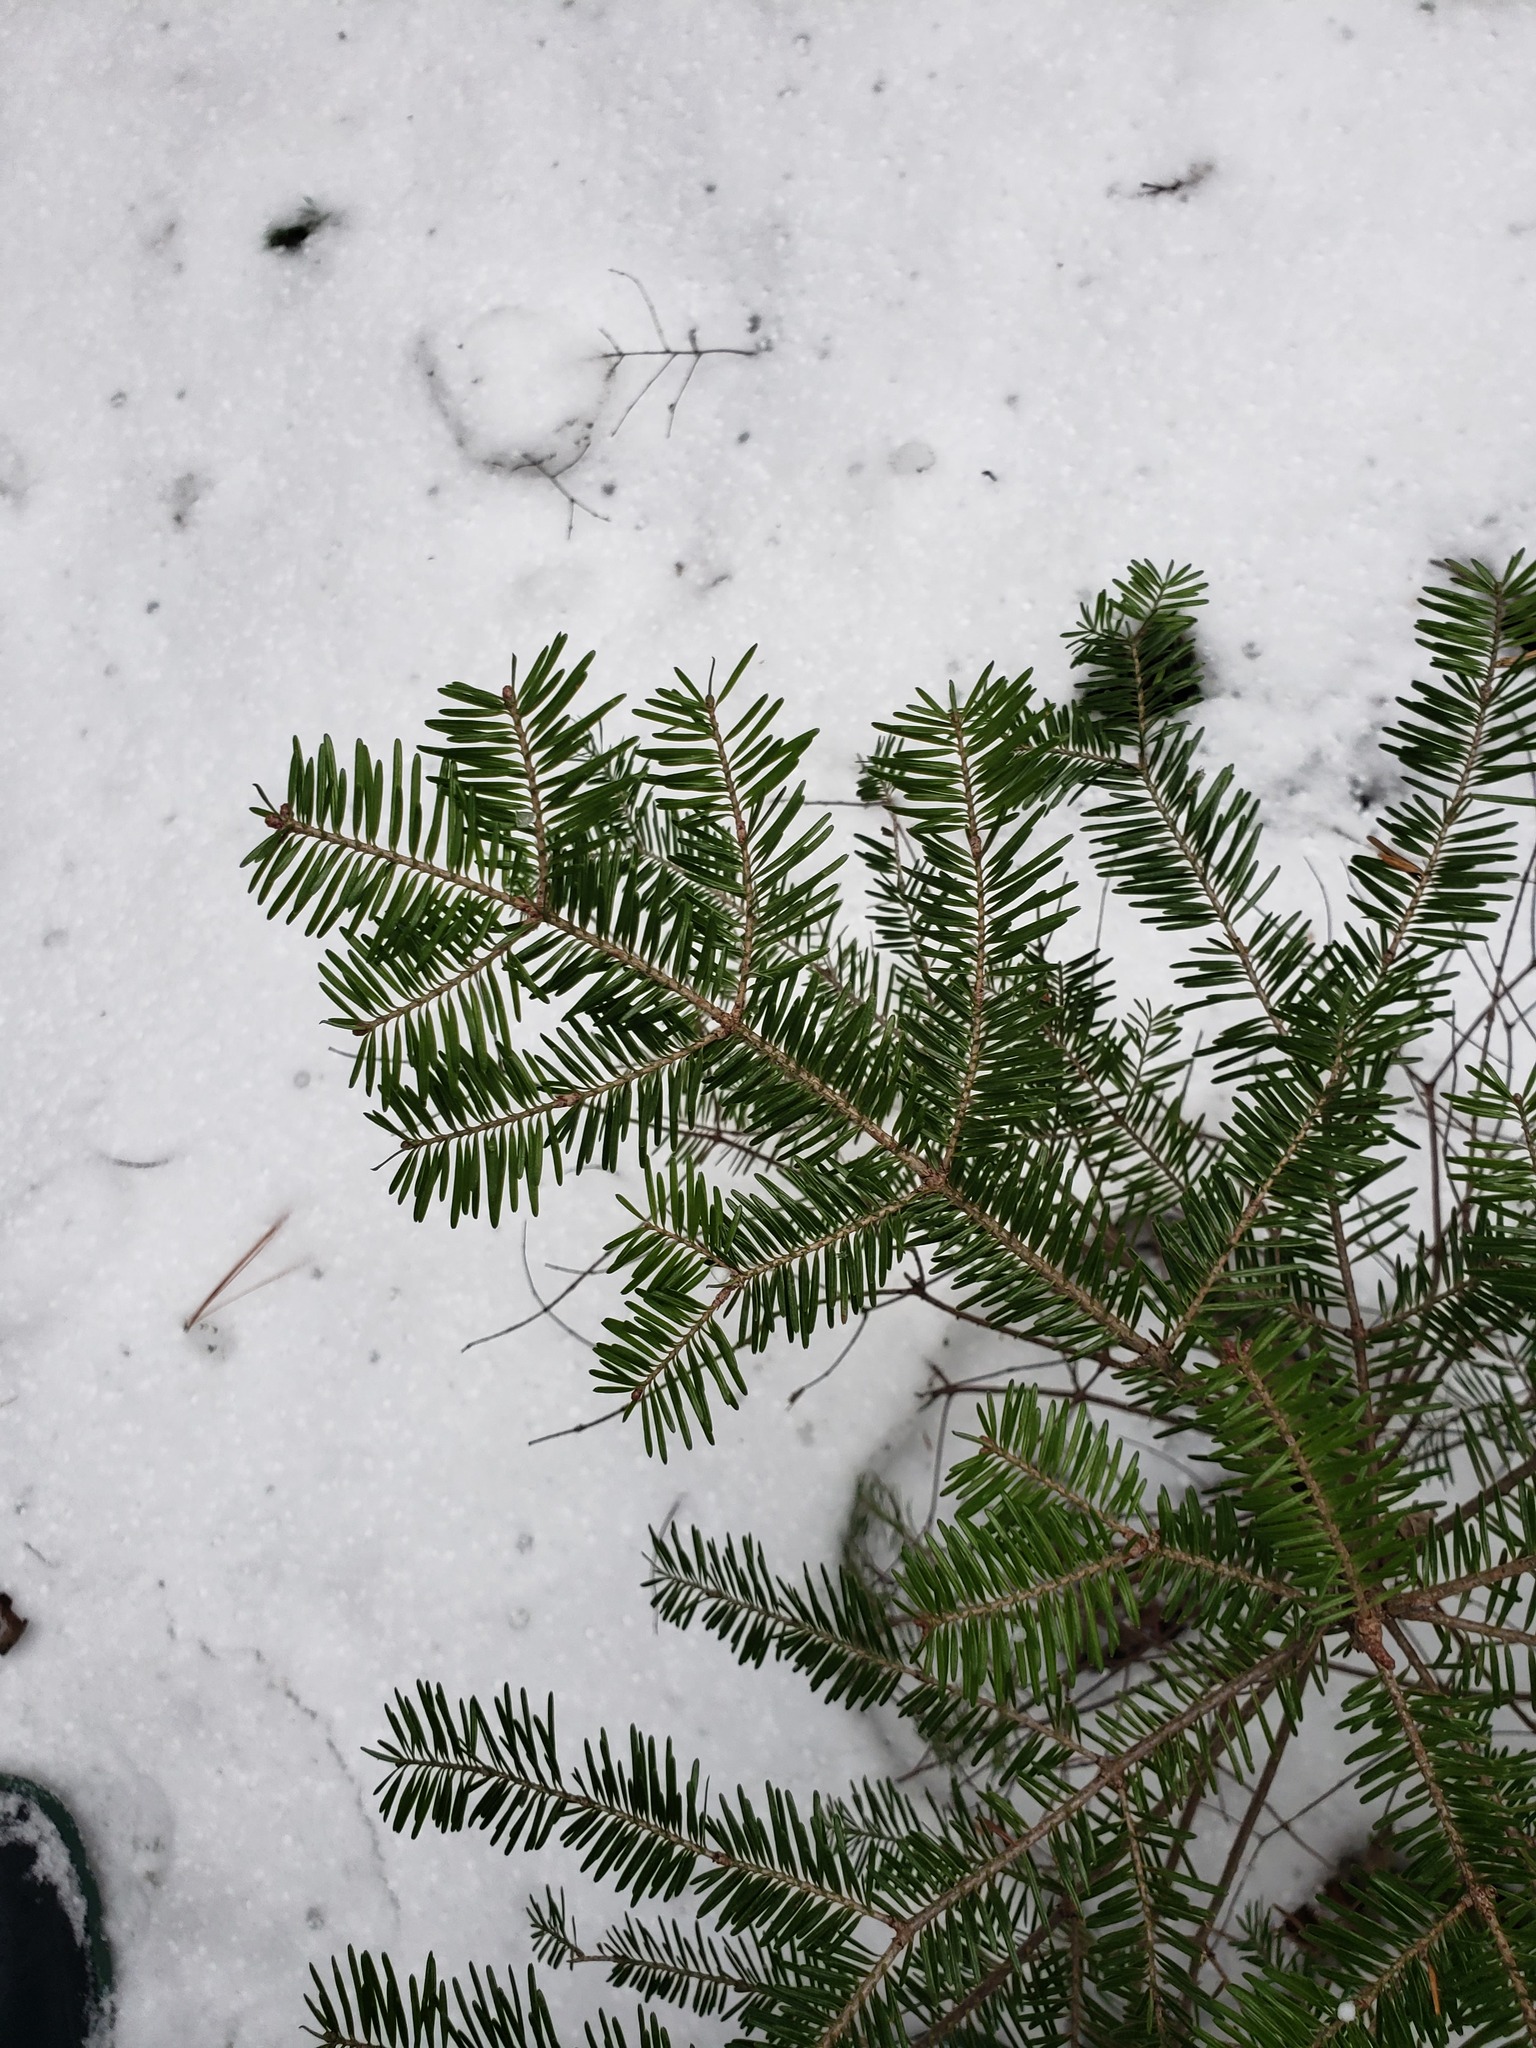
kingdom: Plantae
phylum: Tracheophyta
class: Pinopsida
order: Pinales
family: Pinaceae
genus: Abies
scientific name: Abies balsamea
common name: Balsam fir
